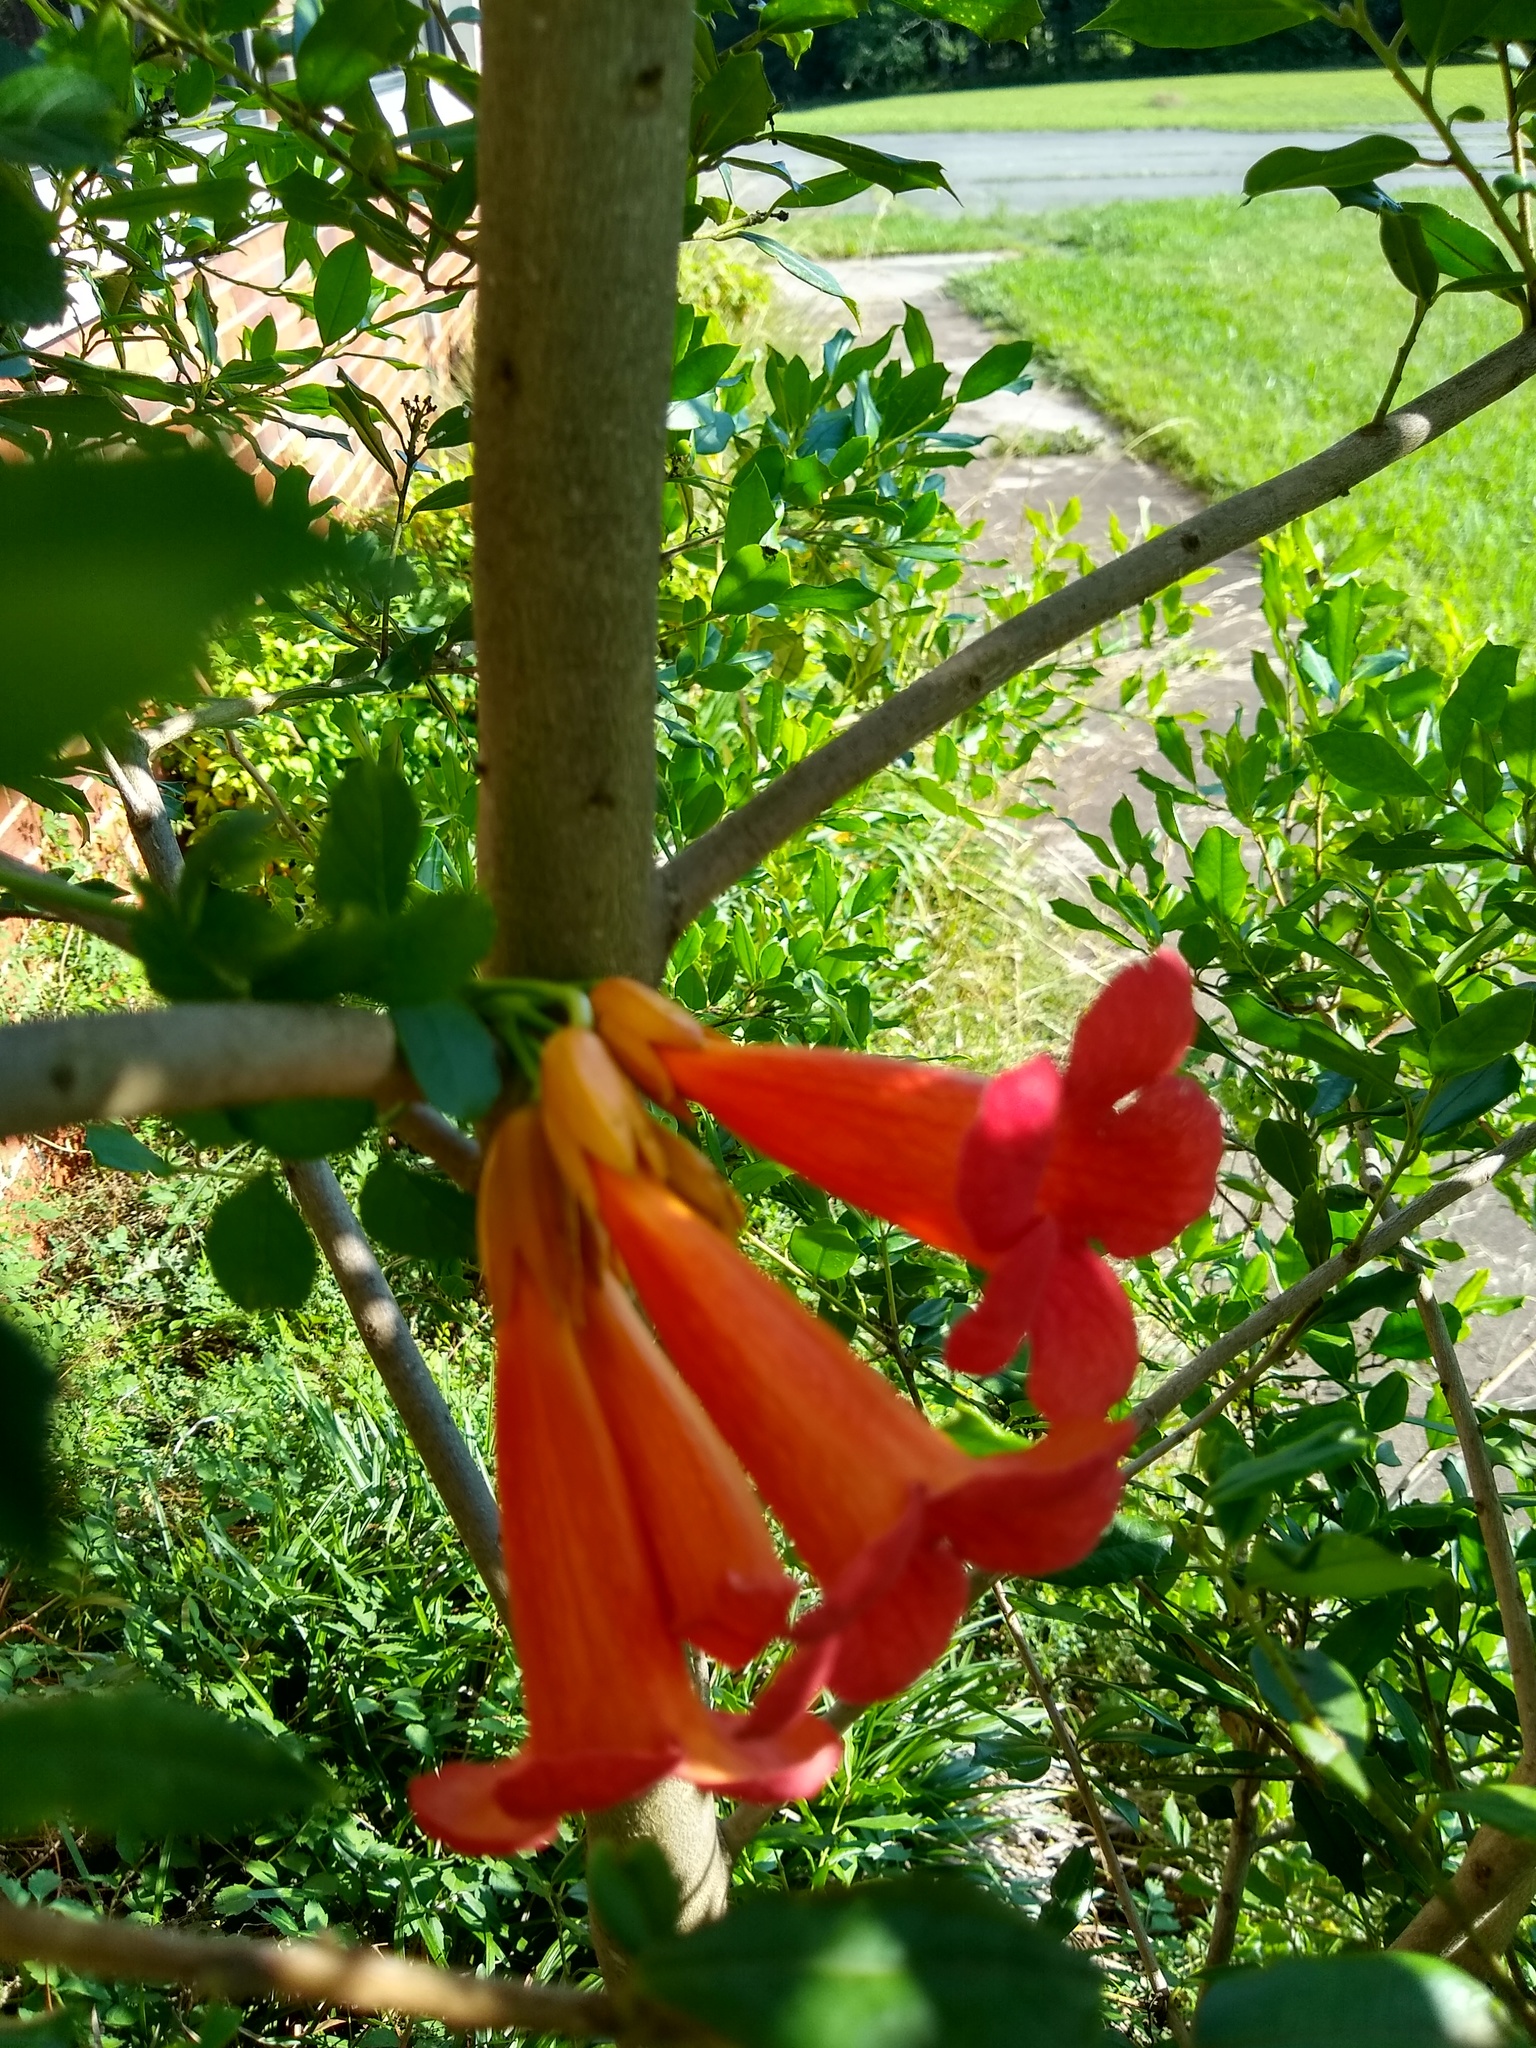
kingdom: Plantae
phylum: Tracheophyta
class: Magnoliopsida
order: Lamiales
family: Bignoniaceae
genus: Campsis
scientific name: Campsis radicans
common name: Trumpet-creeper
